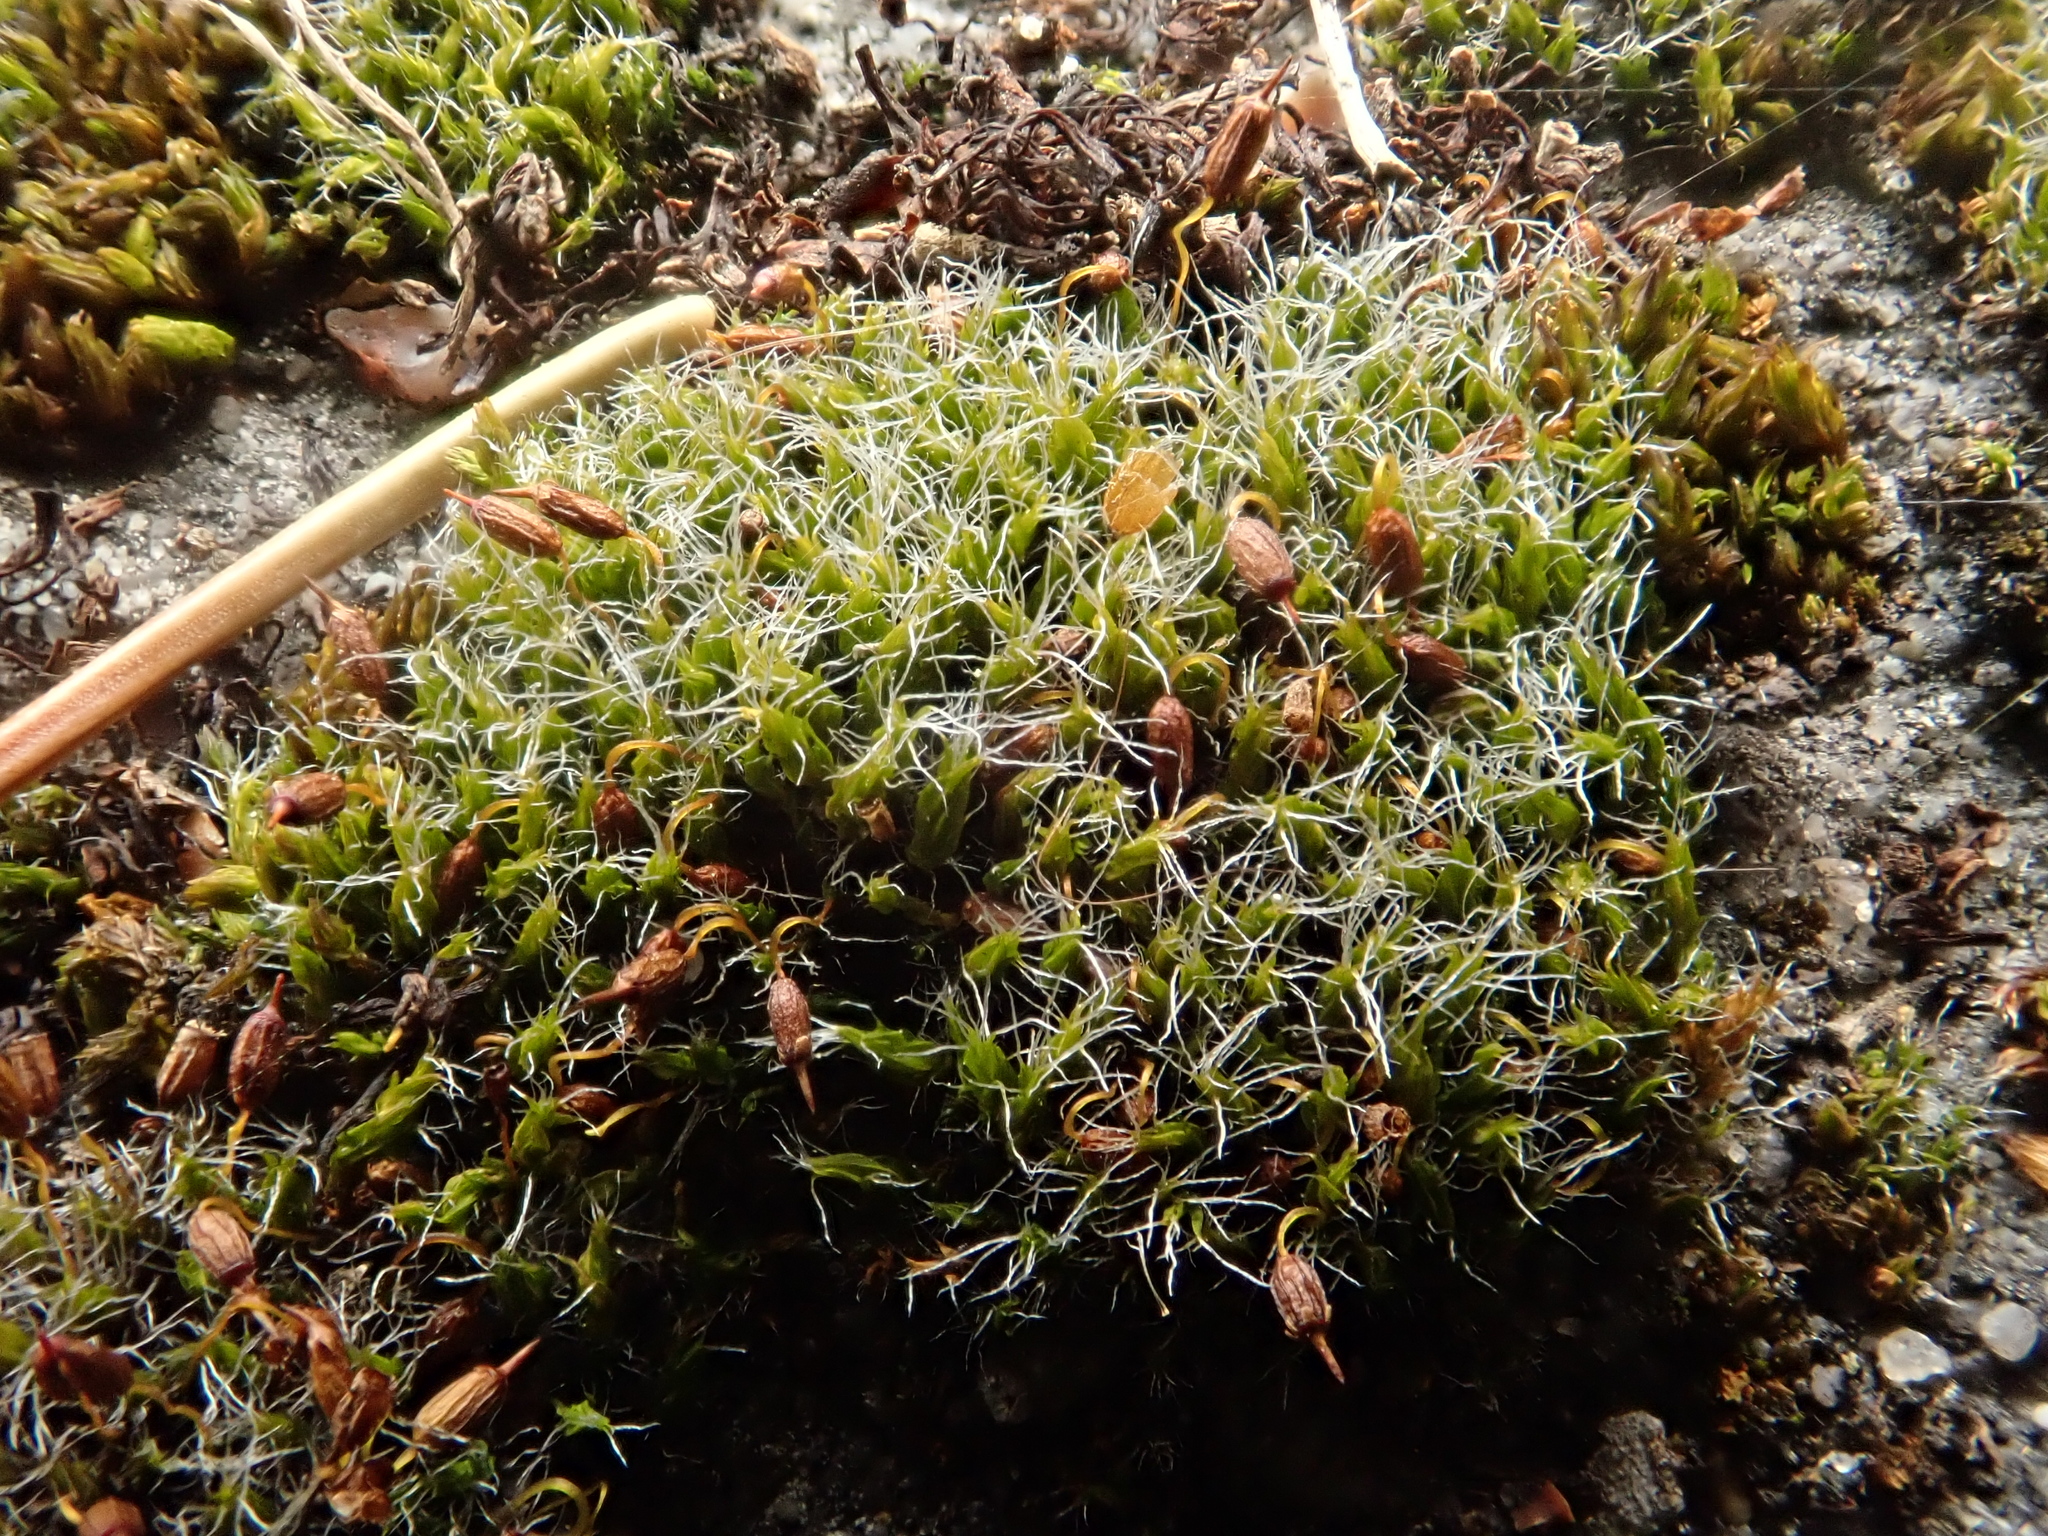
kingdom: Plantae
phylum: Bryophyta
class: Bryopsida
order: Grimmiales
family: Grimmiaceae
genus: Grimmia
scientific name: Grimmia pulvinata
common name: Grey-cushioned grimmia
